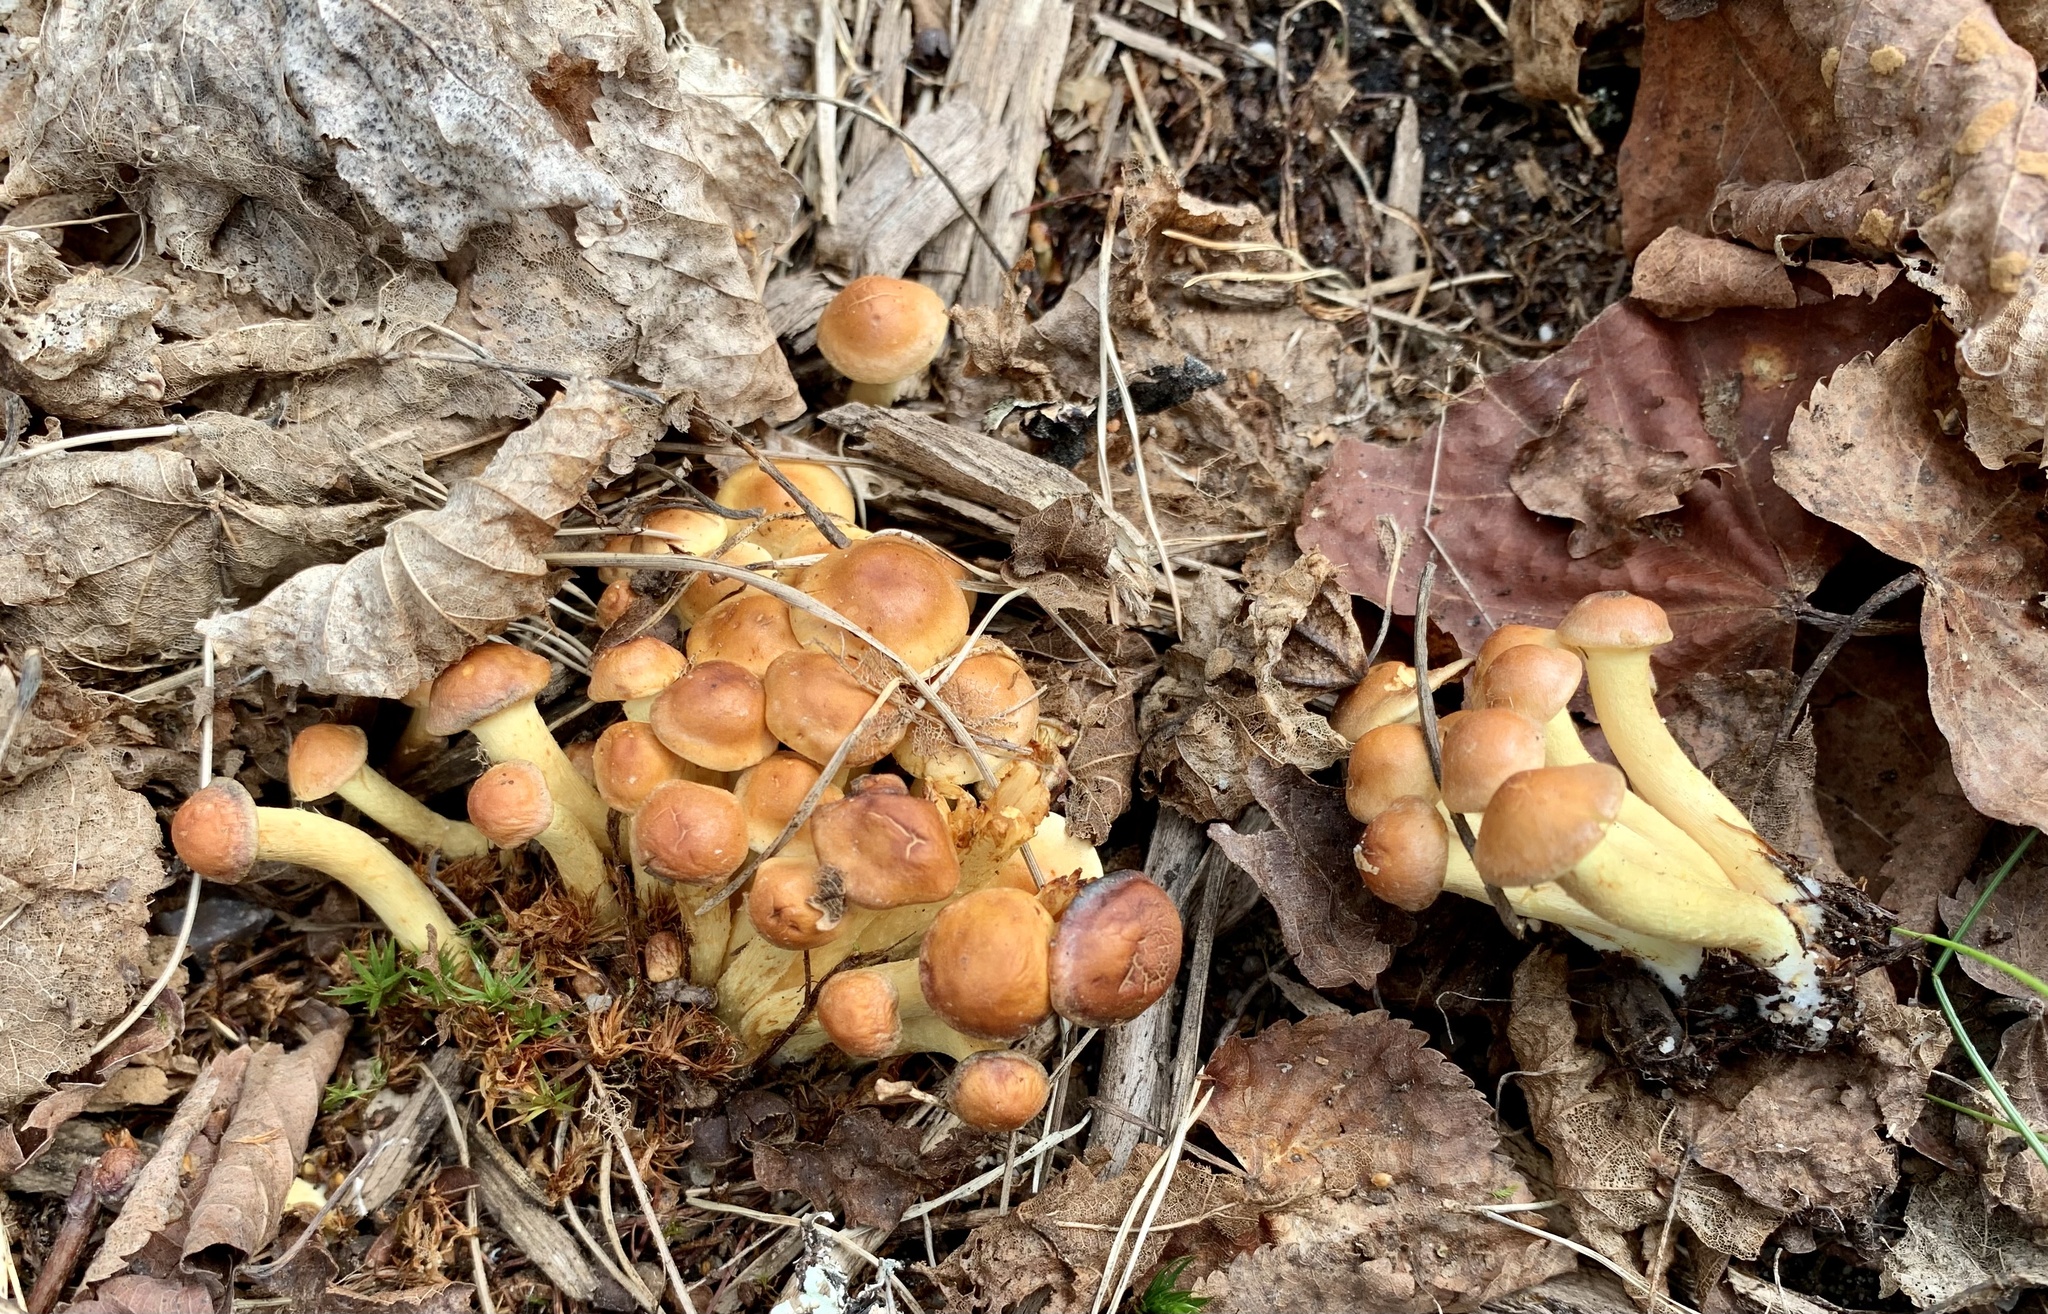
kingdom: Fungi
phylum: Basidiomycota
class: Agaricomycetes
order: Agaricales
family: Strophariaceae
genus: Hypholoma
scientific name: Hypholoma fasciculare
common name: Sulphur tuft
